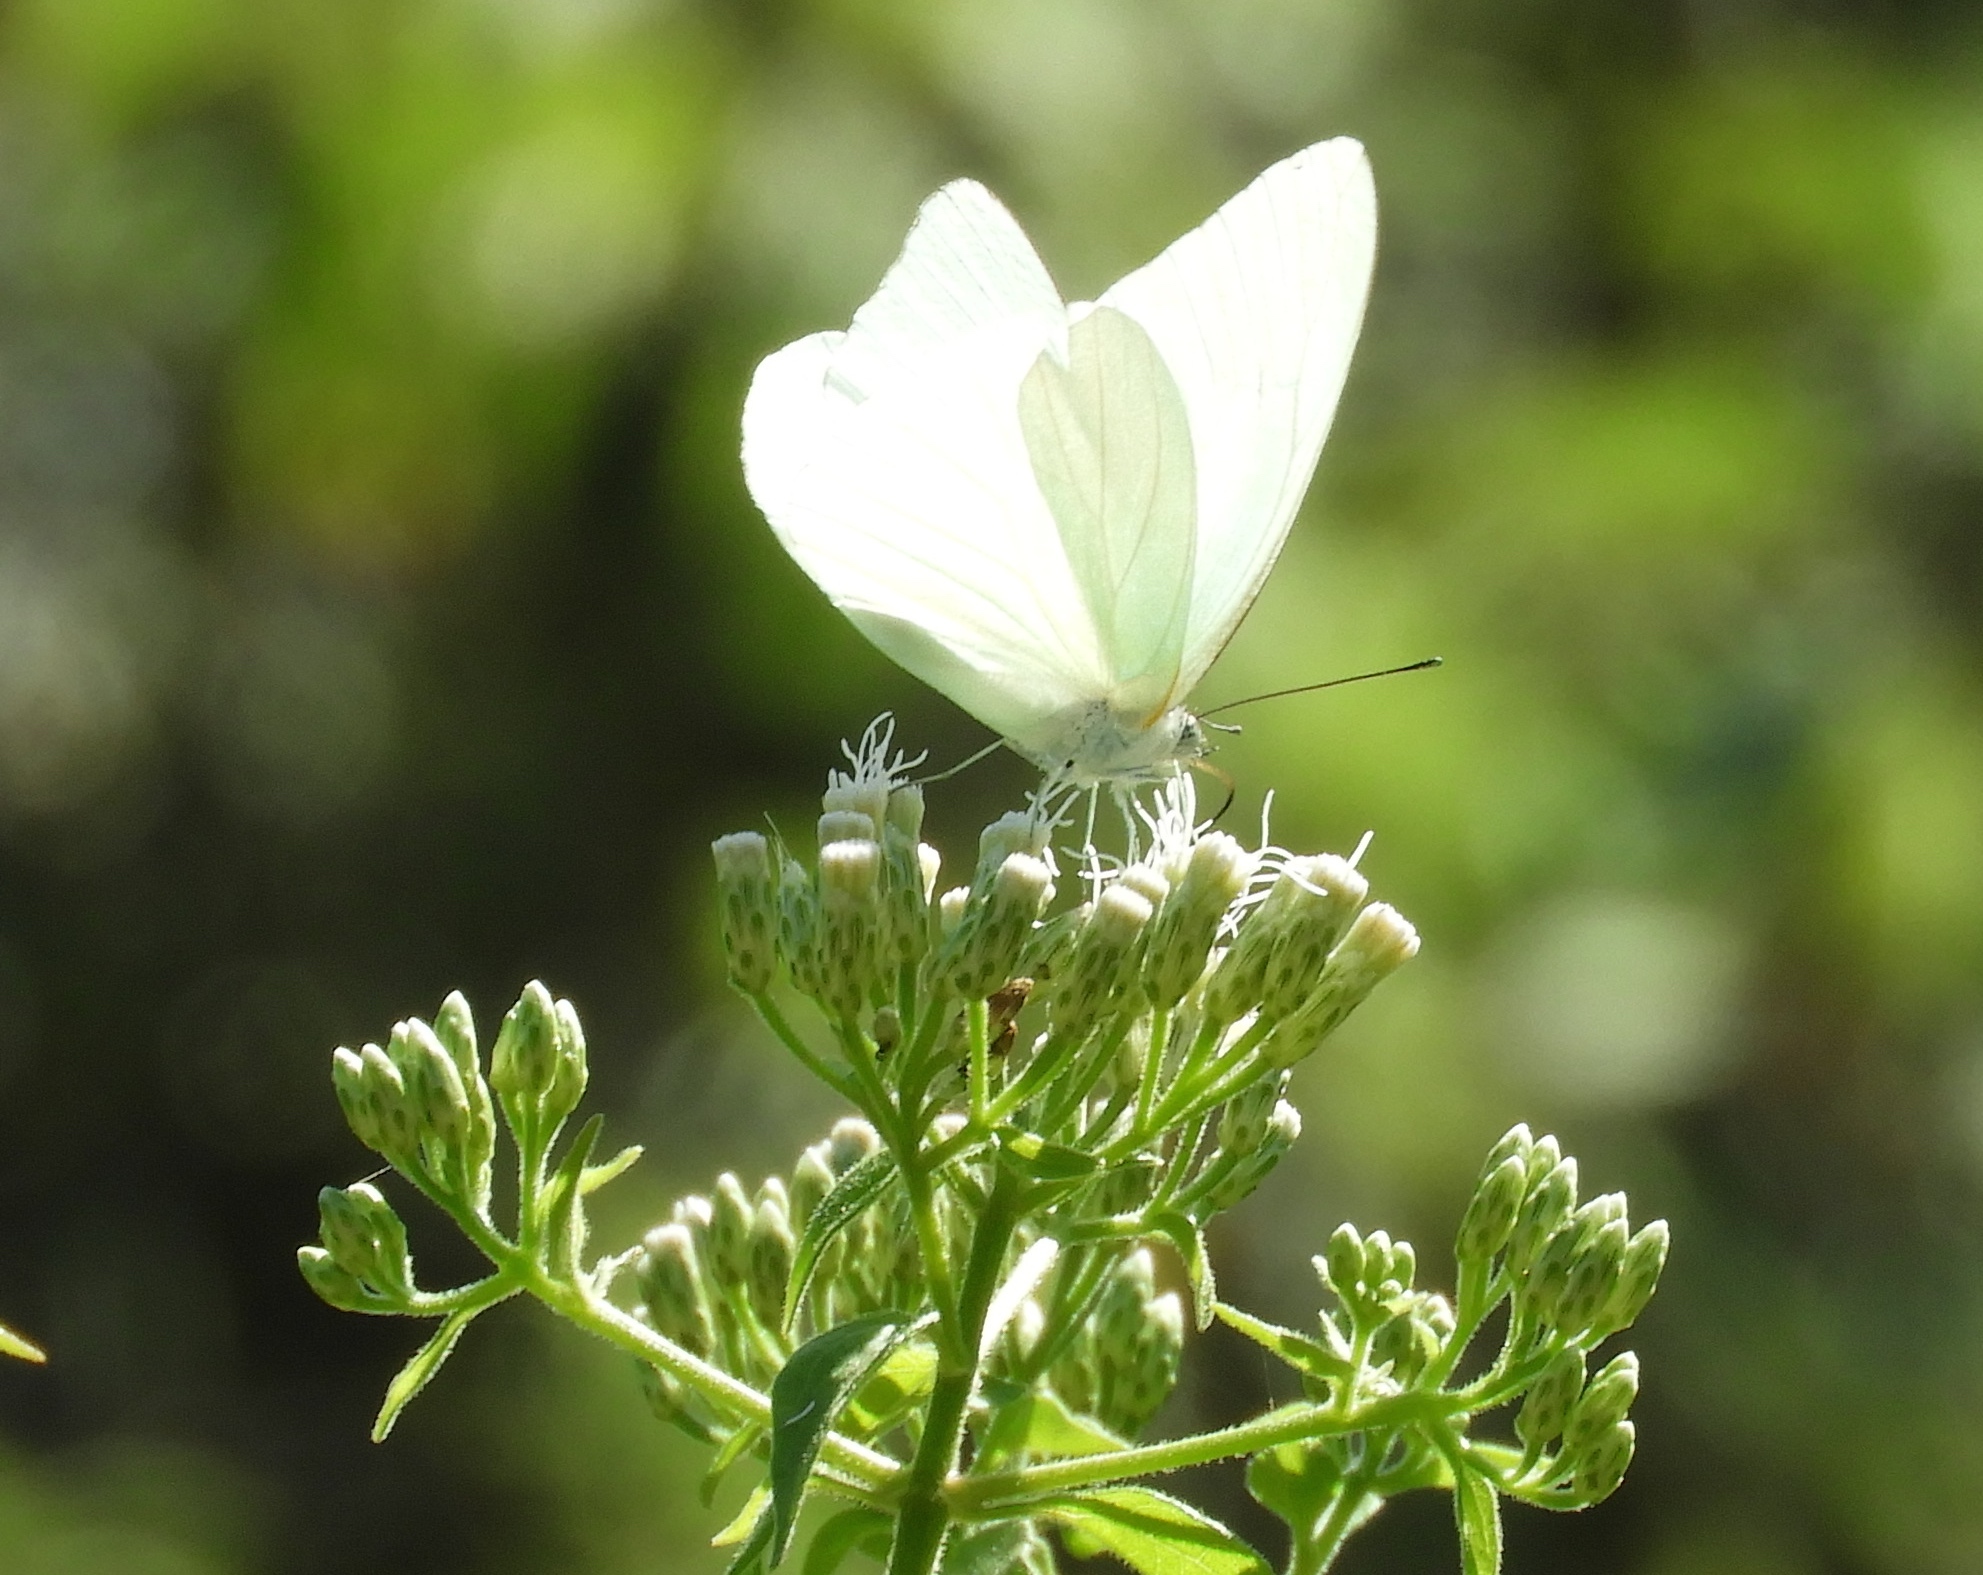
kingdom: Animalia
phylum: Arthropoda
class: Insecta
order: Lepidoptera
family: Pieridae
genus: Glutophrissa
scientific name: Glutophrissa drusilla
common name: Florida white
